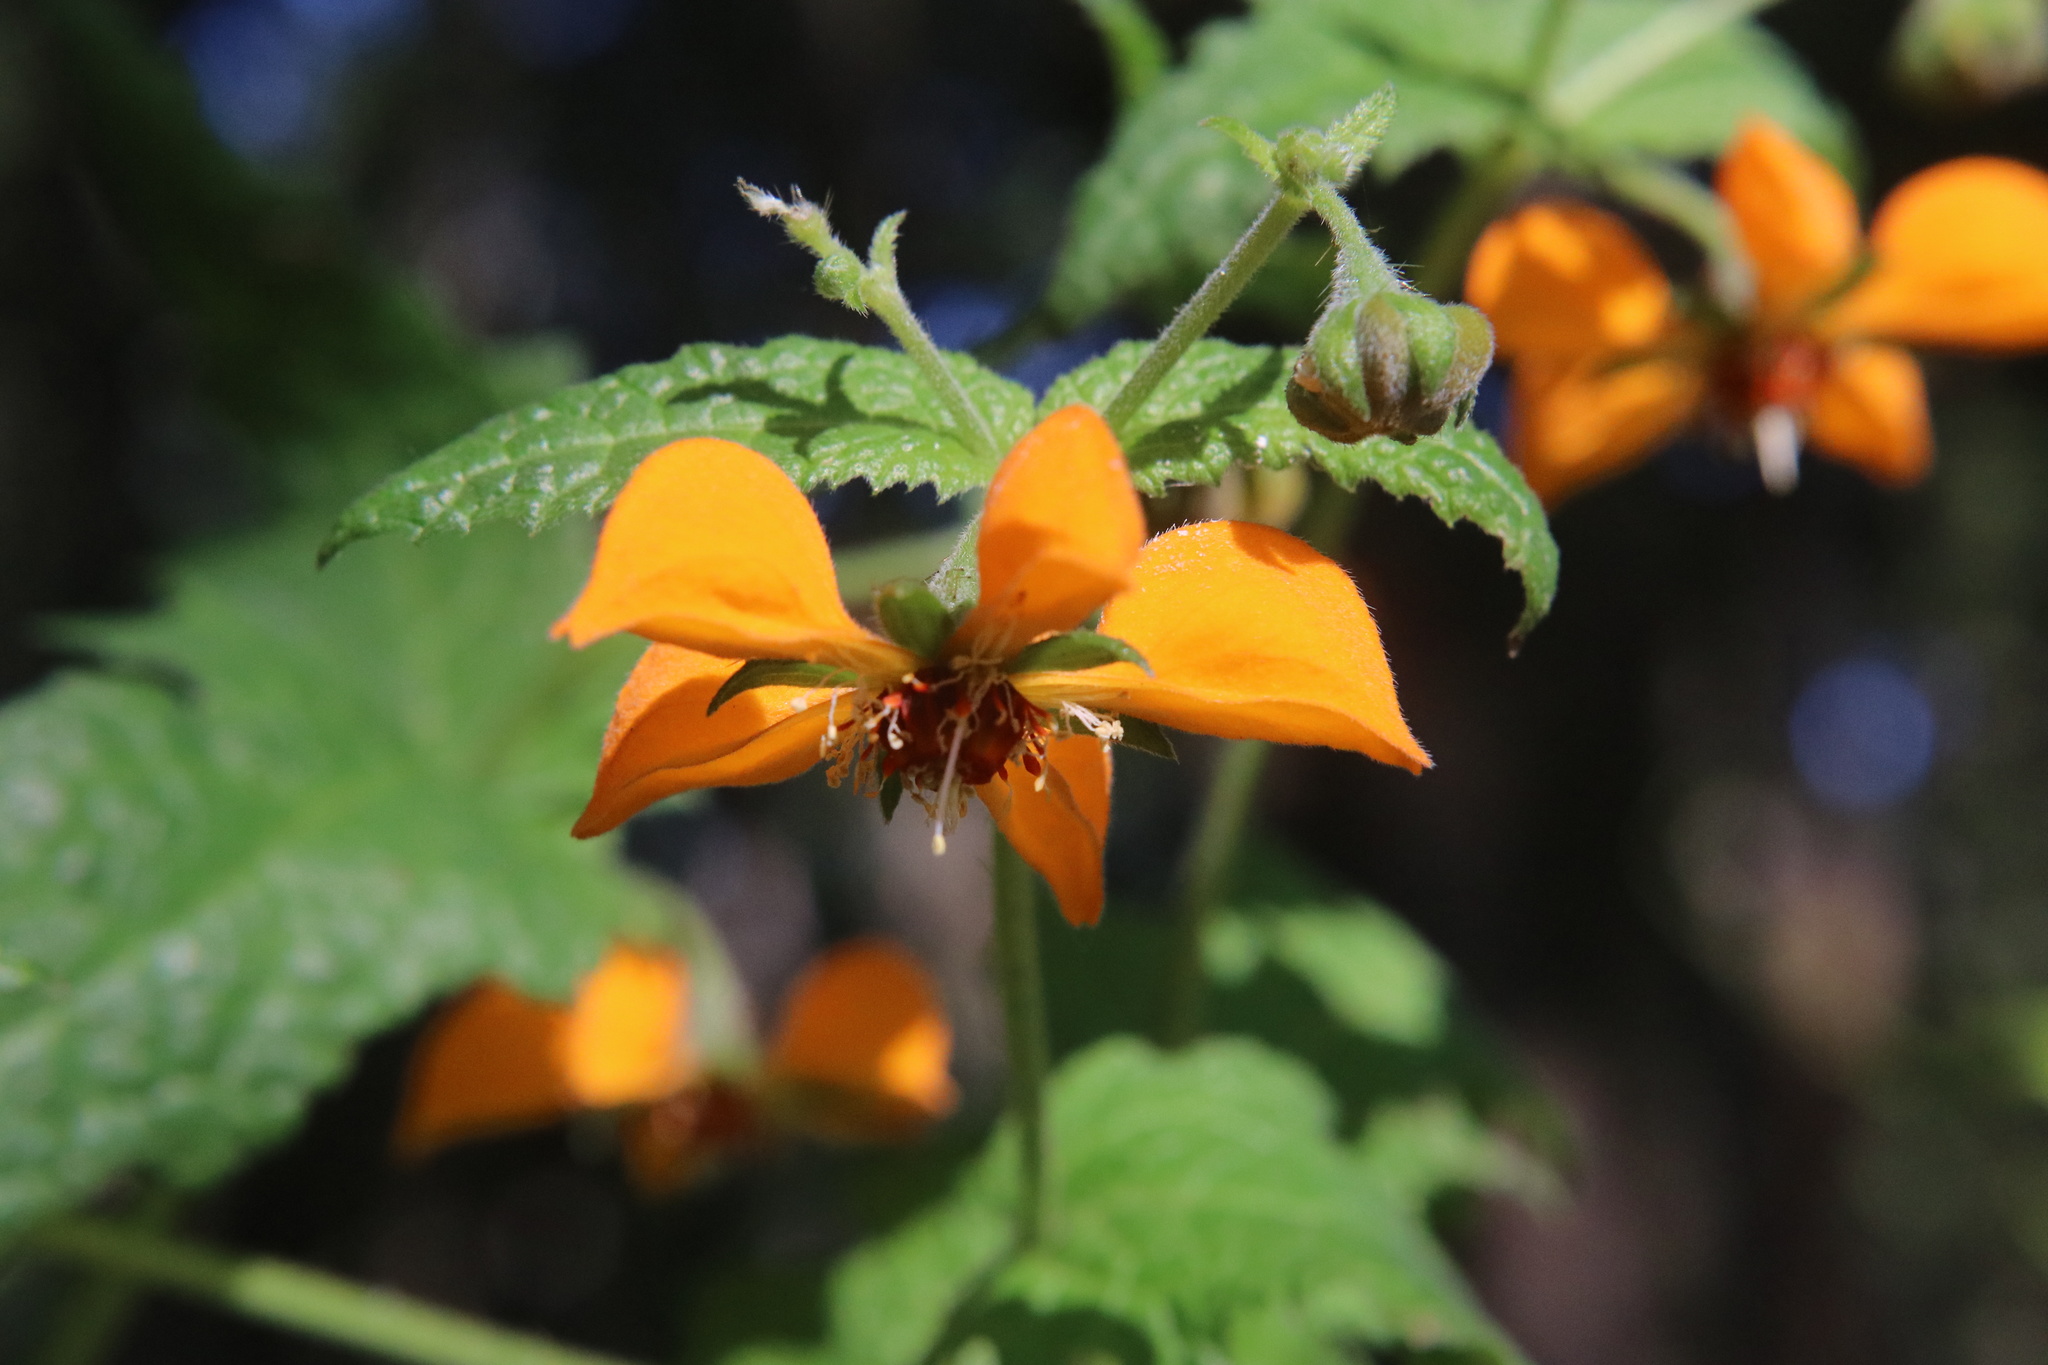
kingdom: Plantae
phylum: Tracheophyta
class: Magnoliopsida
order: Cornales
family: Loasaceae
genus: Loasa
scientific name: Loasa sclareifolia
